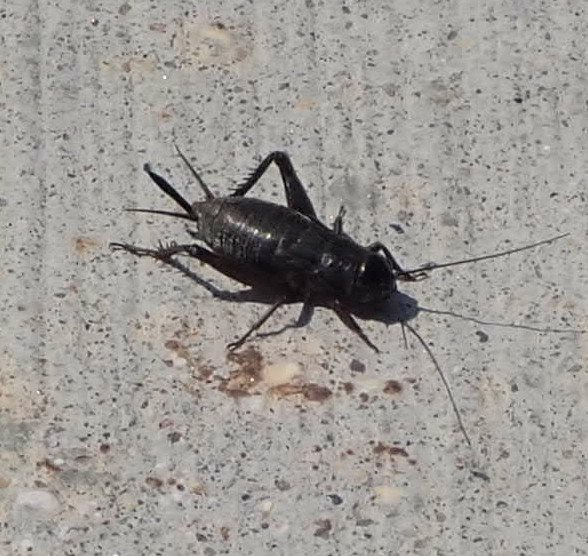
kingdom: Animalia
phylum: Arthropoda
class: Insecta
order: Orthoptera
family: Gryllidae
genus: Gryllus
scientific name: Gryllus pennsylvanicus
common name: Fall field cricket
